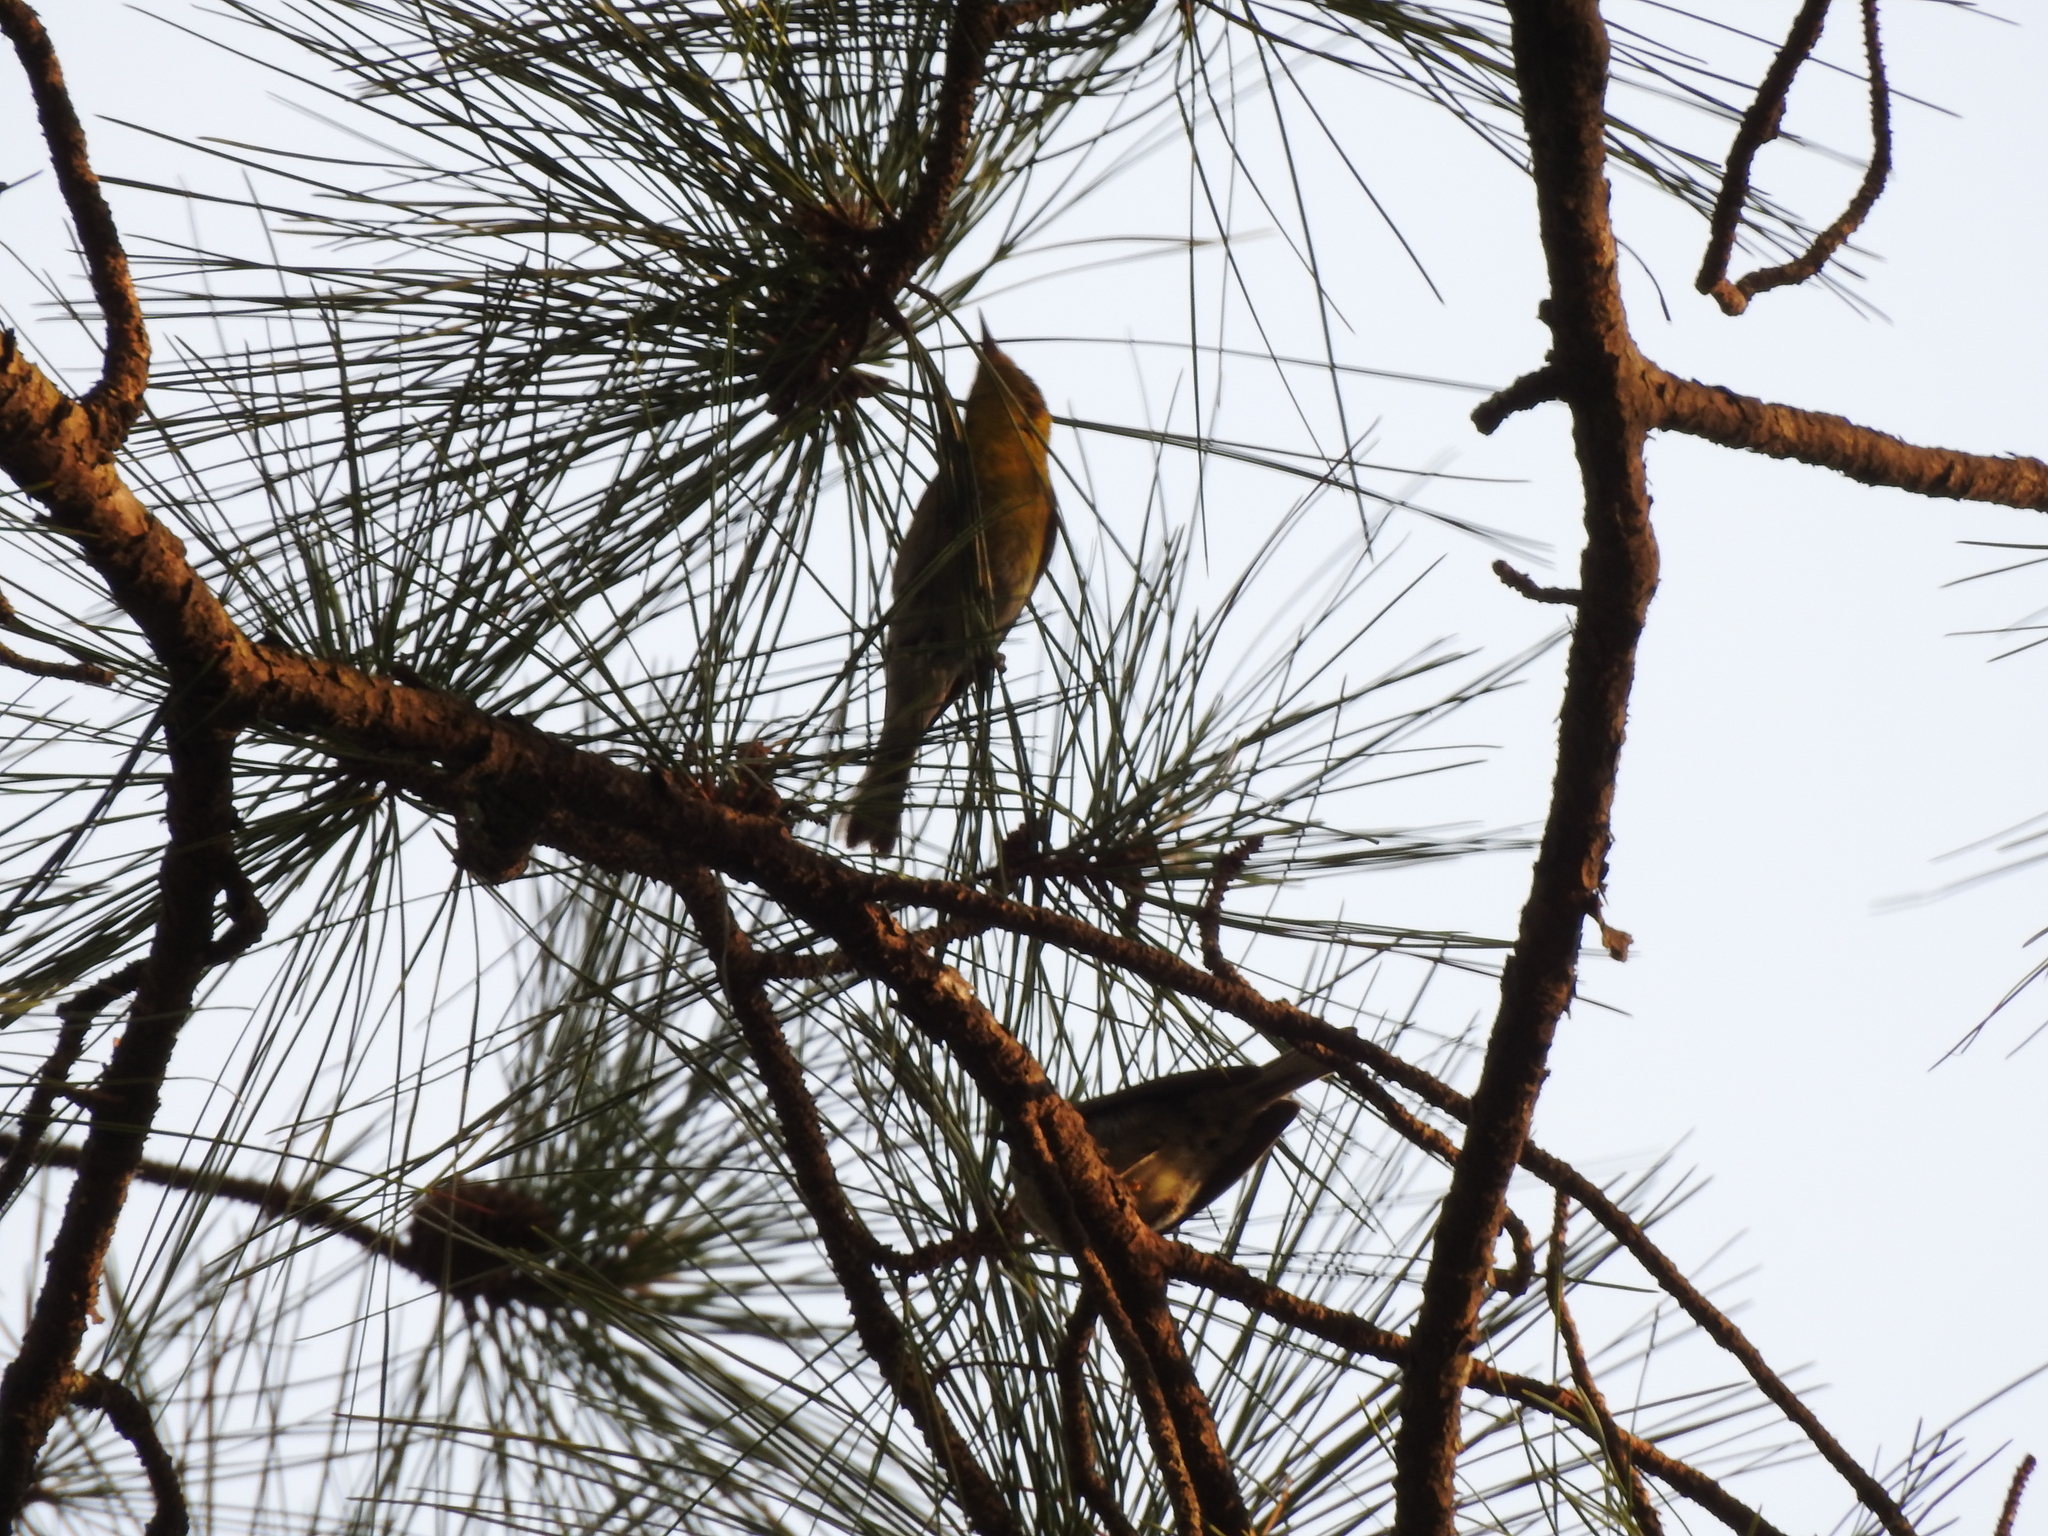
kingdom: Animalia
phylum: Chordata
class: Aves
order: Passeriformes
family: Parulidae
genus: Setophaga
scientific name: Setophaga pinus
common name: Pine warbler
